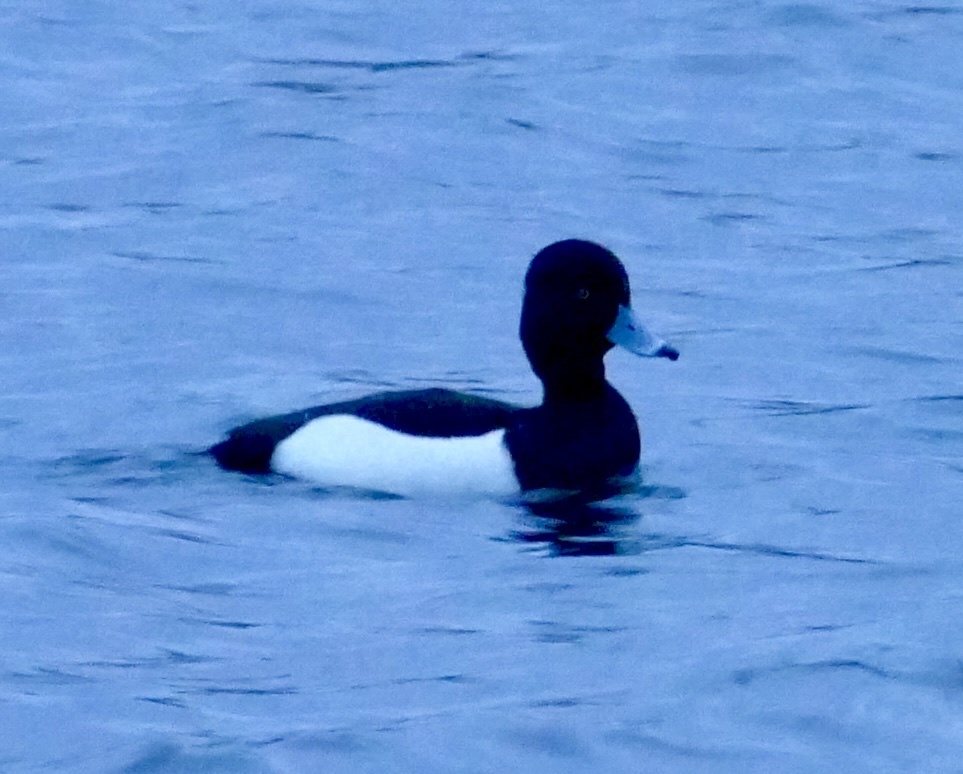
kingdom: Animalia
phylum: Chordata
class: Aves
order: Anseriformes
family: Anatidae
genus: Aythya
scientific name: Aythya fuligula
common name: Tufted duck
